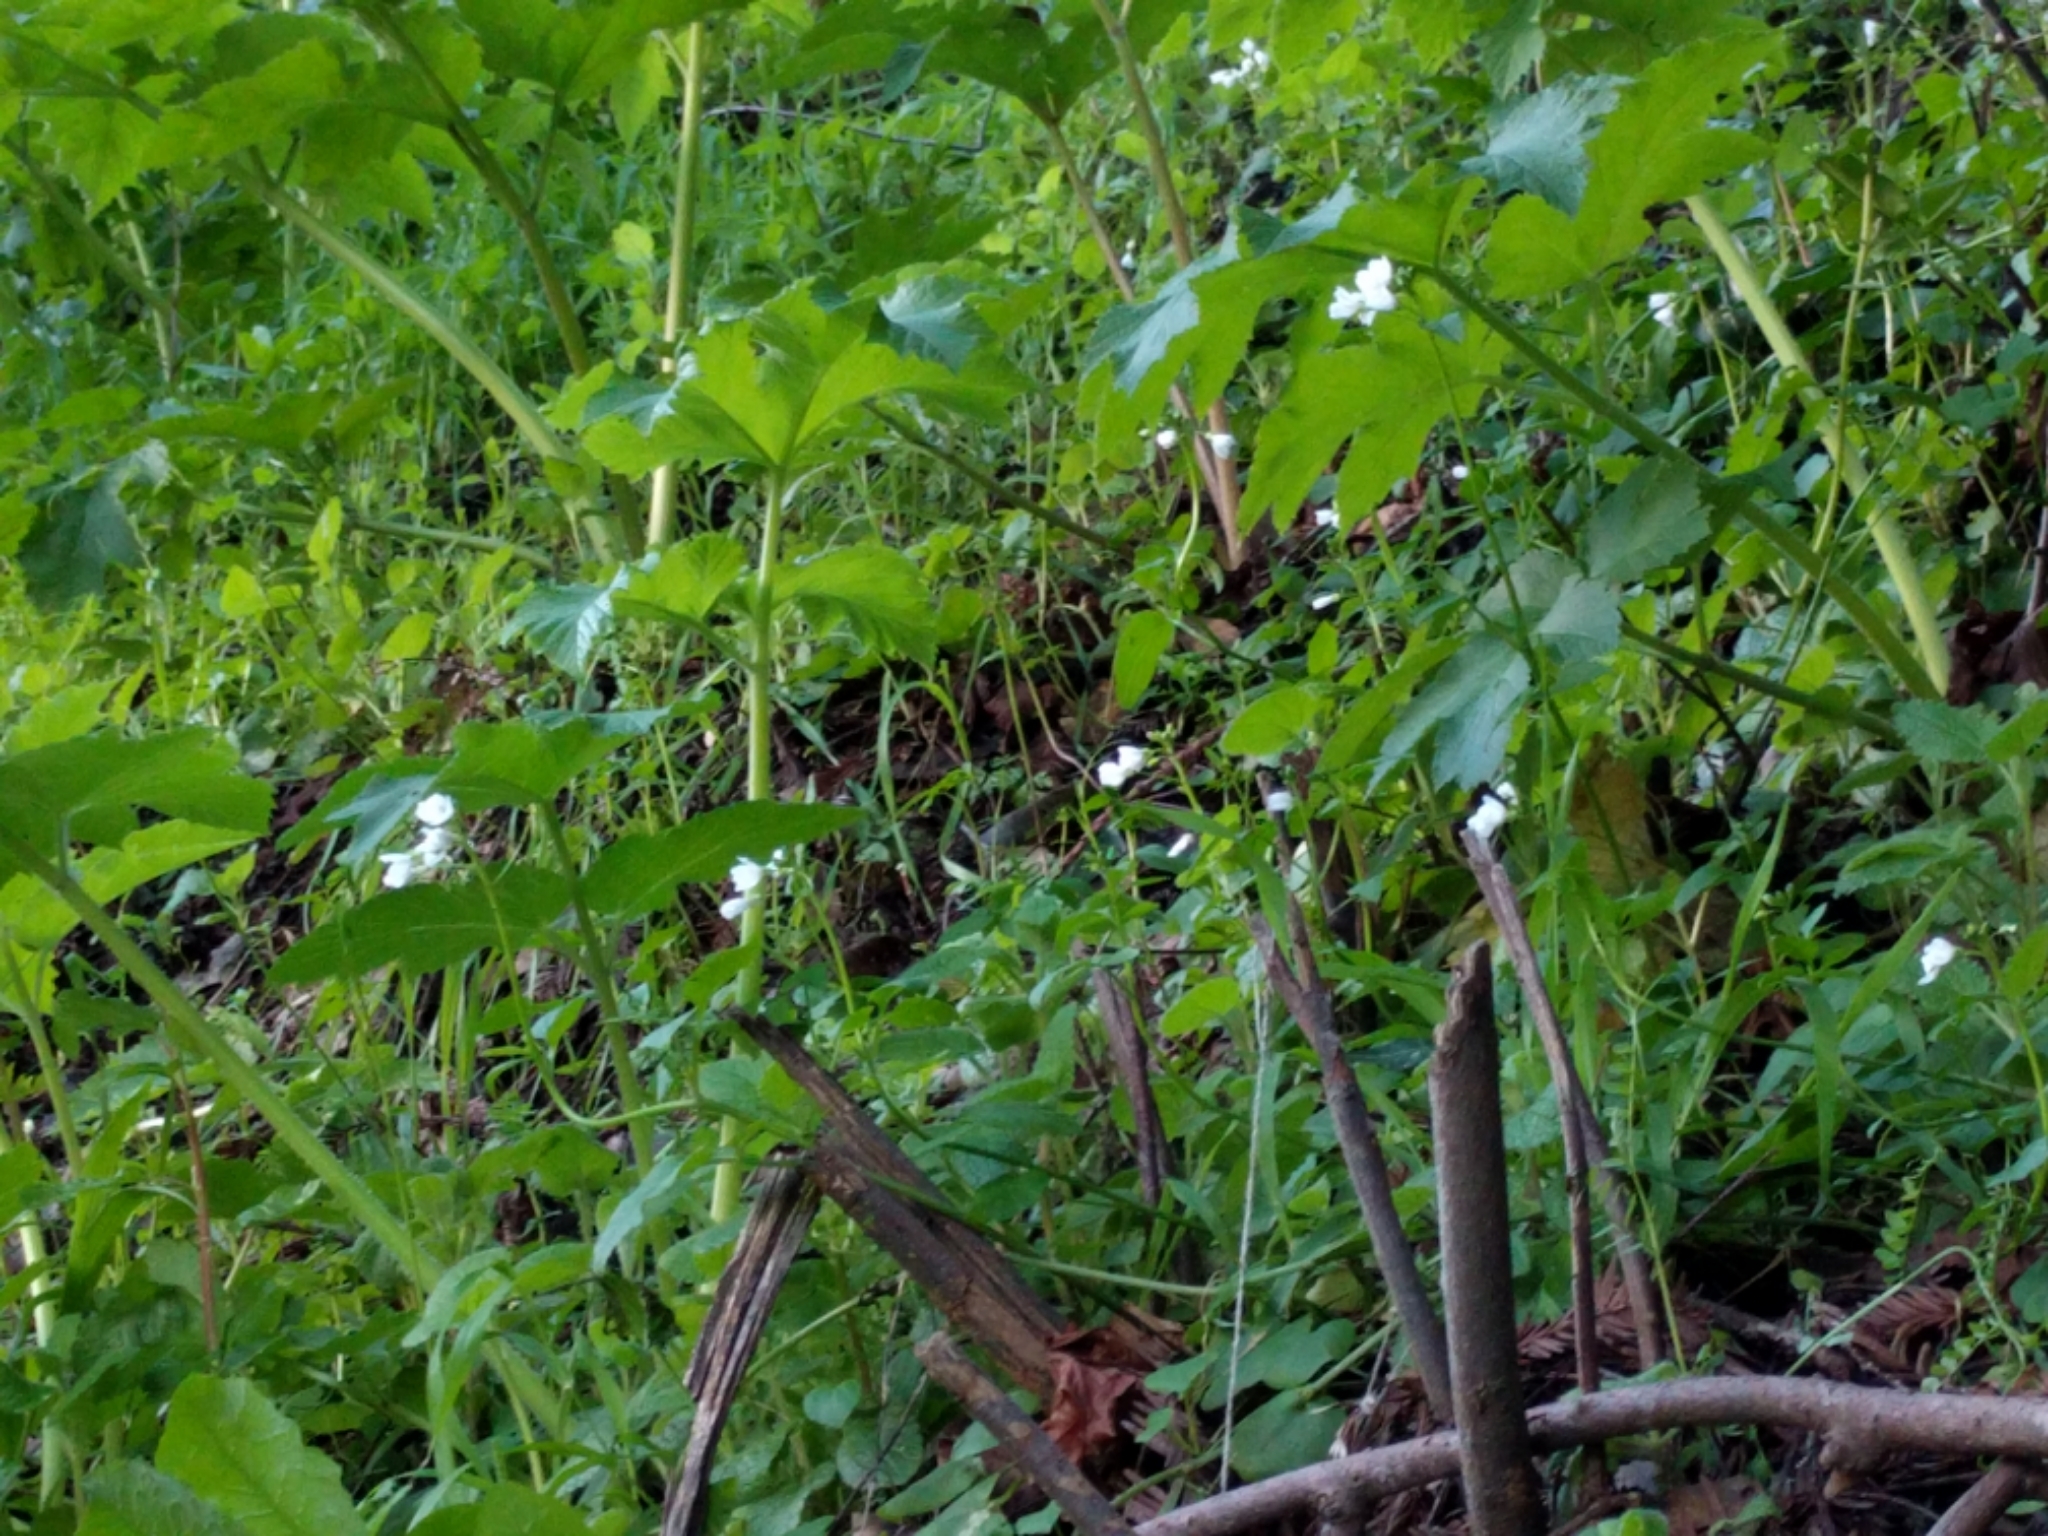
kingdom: Plantae
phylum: Tracheophyta
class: Magnoliopsida
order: Brassicales
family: Brassicaceae
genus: Cardamine
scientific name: Cardamine californica
